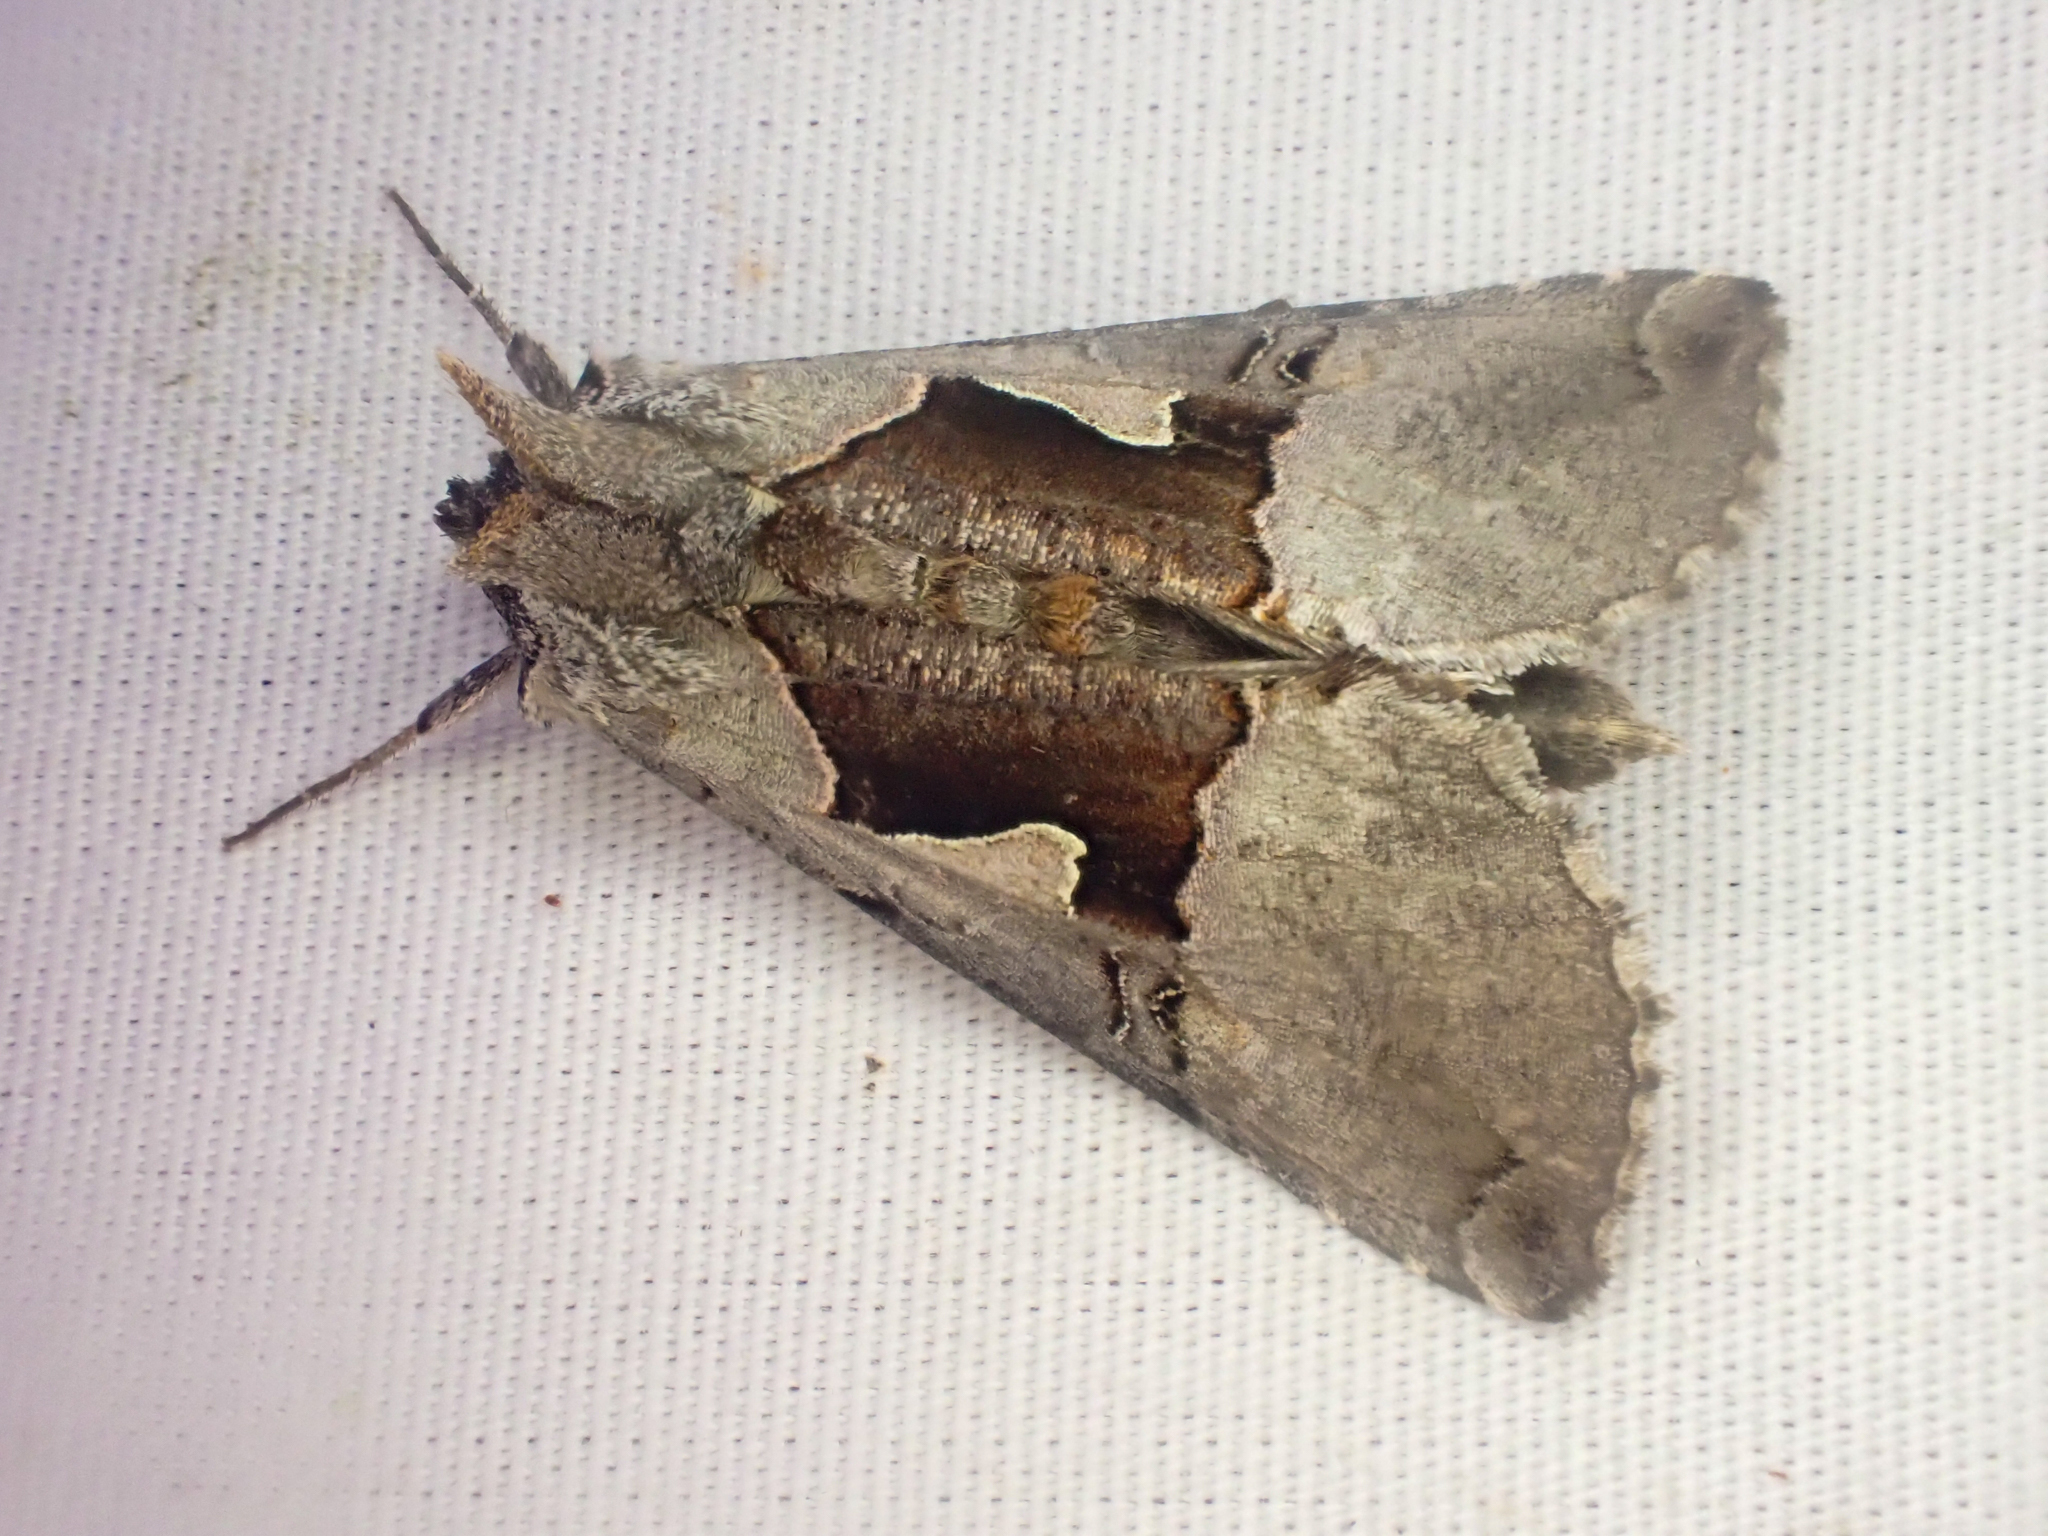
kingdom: Animalia
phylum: Arthropoda
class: Insecta
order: Lepidoptera
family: Noctuidae
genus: Autographa
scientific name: Autographa ampla
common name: Large looper moth
